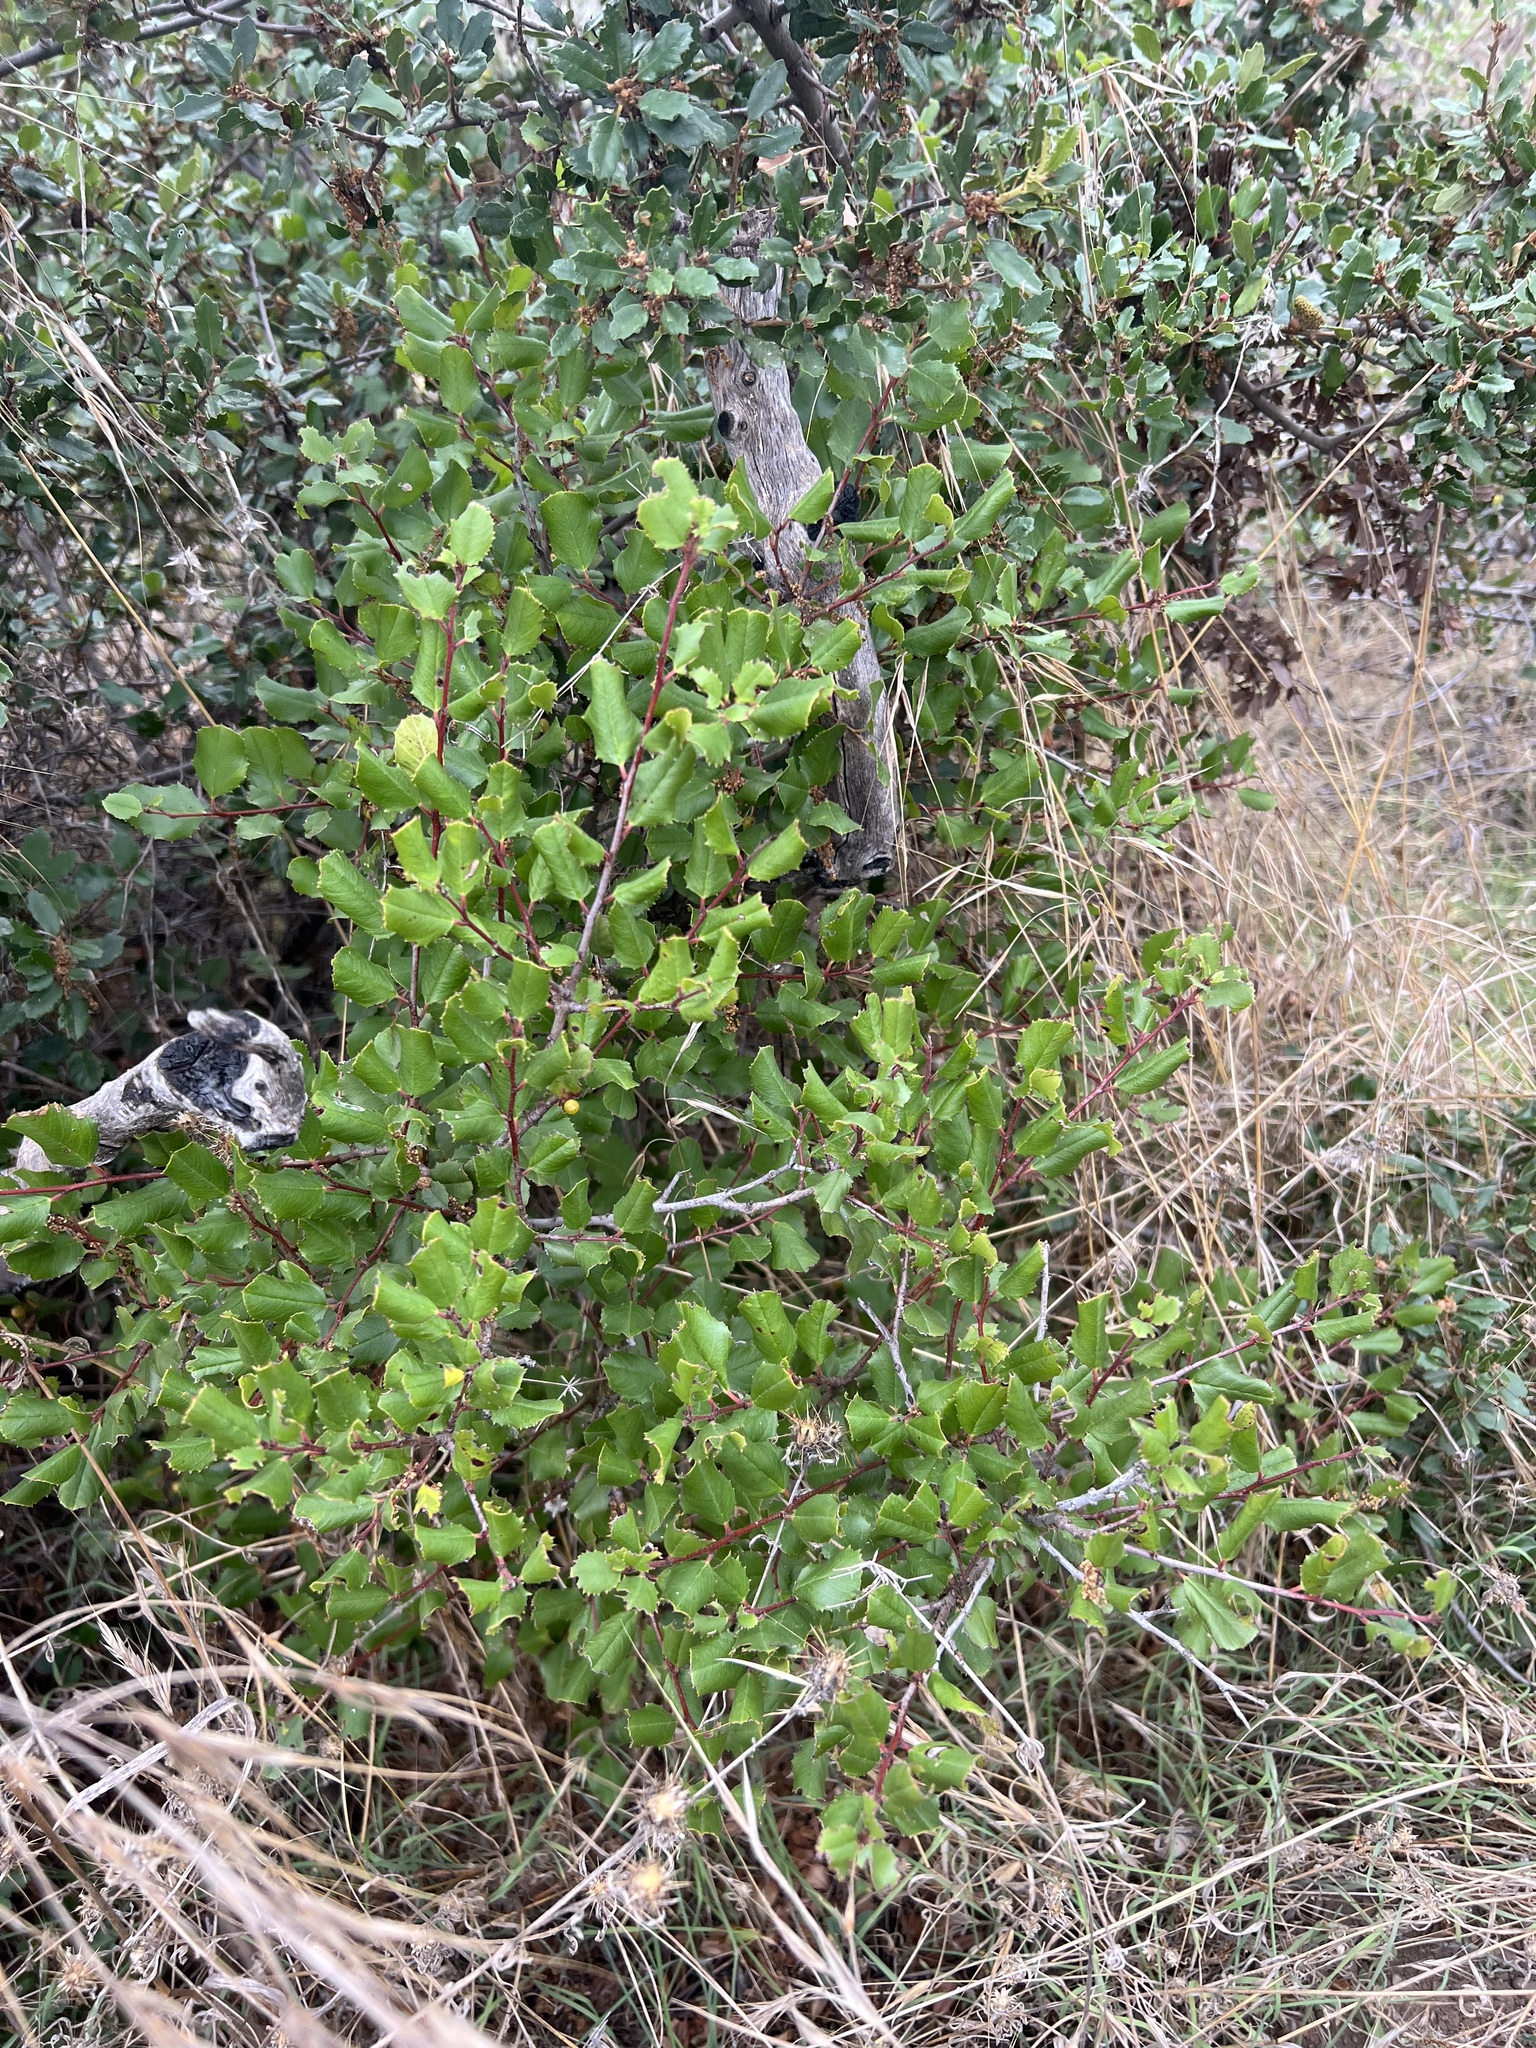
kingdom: Plantae
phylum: Tracheophyta
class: Magnoliopsida
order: Rosales
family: Rhamnaceae
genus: Endotropis
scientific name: Endotropis crocea
